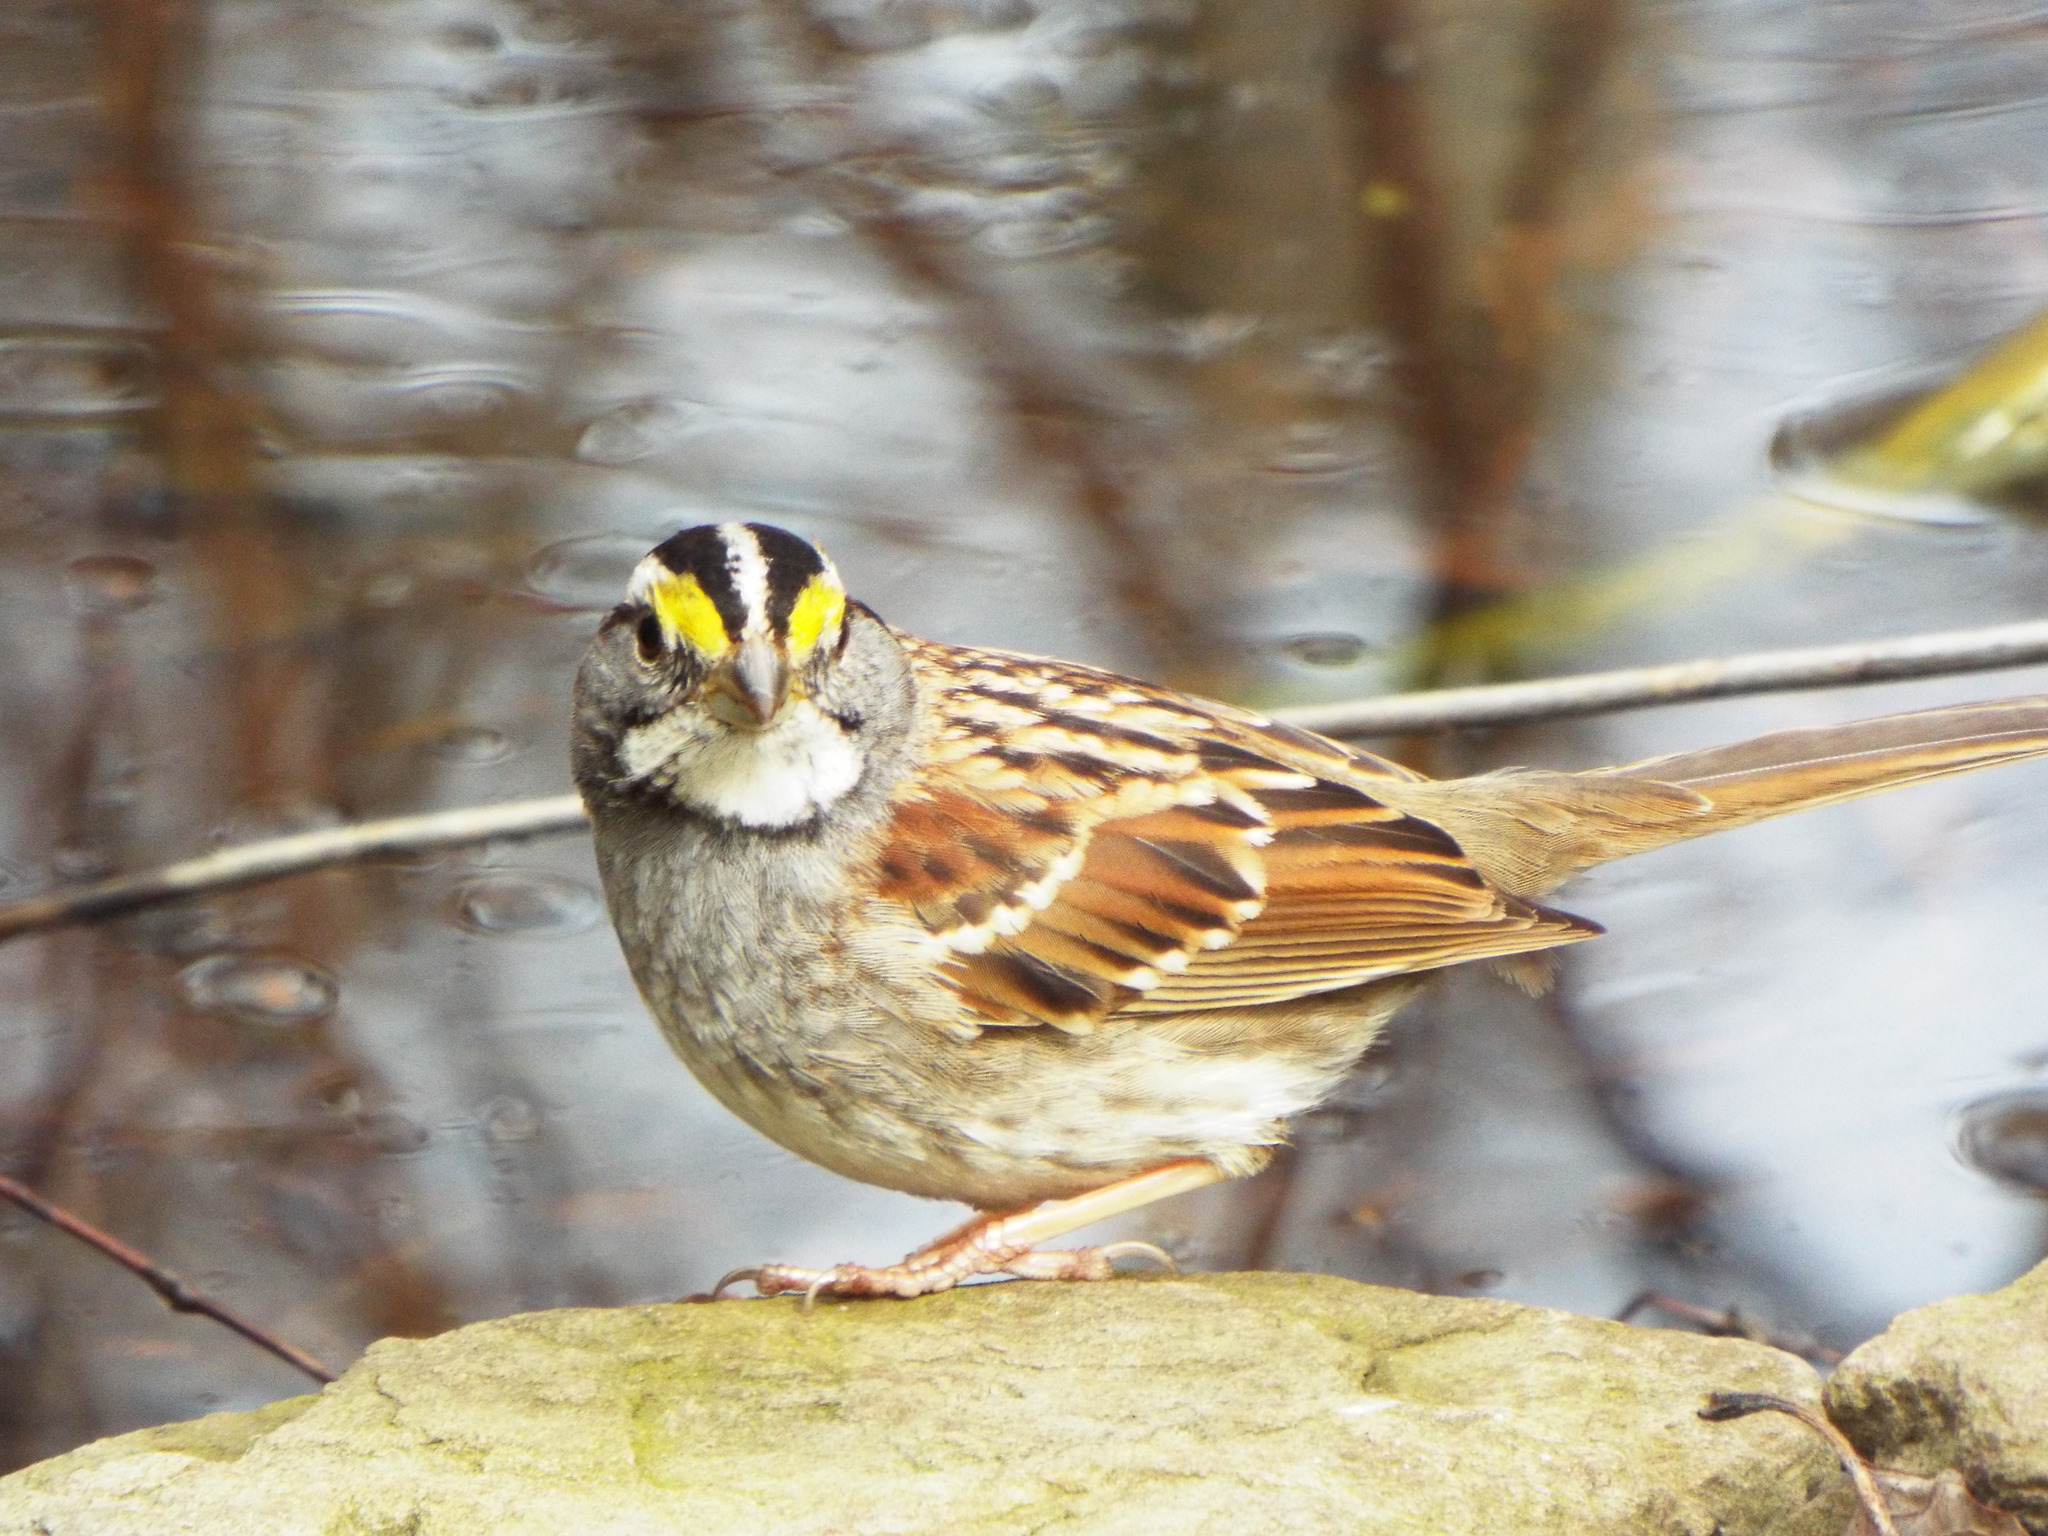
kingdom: Animalia
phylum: Chordata
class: Aves
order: Passeriformes
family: Passerellidae
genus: Zonotrichia
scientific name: Zonotrichia albicollis
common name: White-throated sparrow
